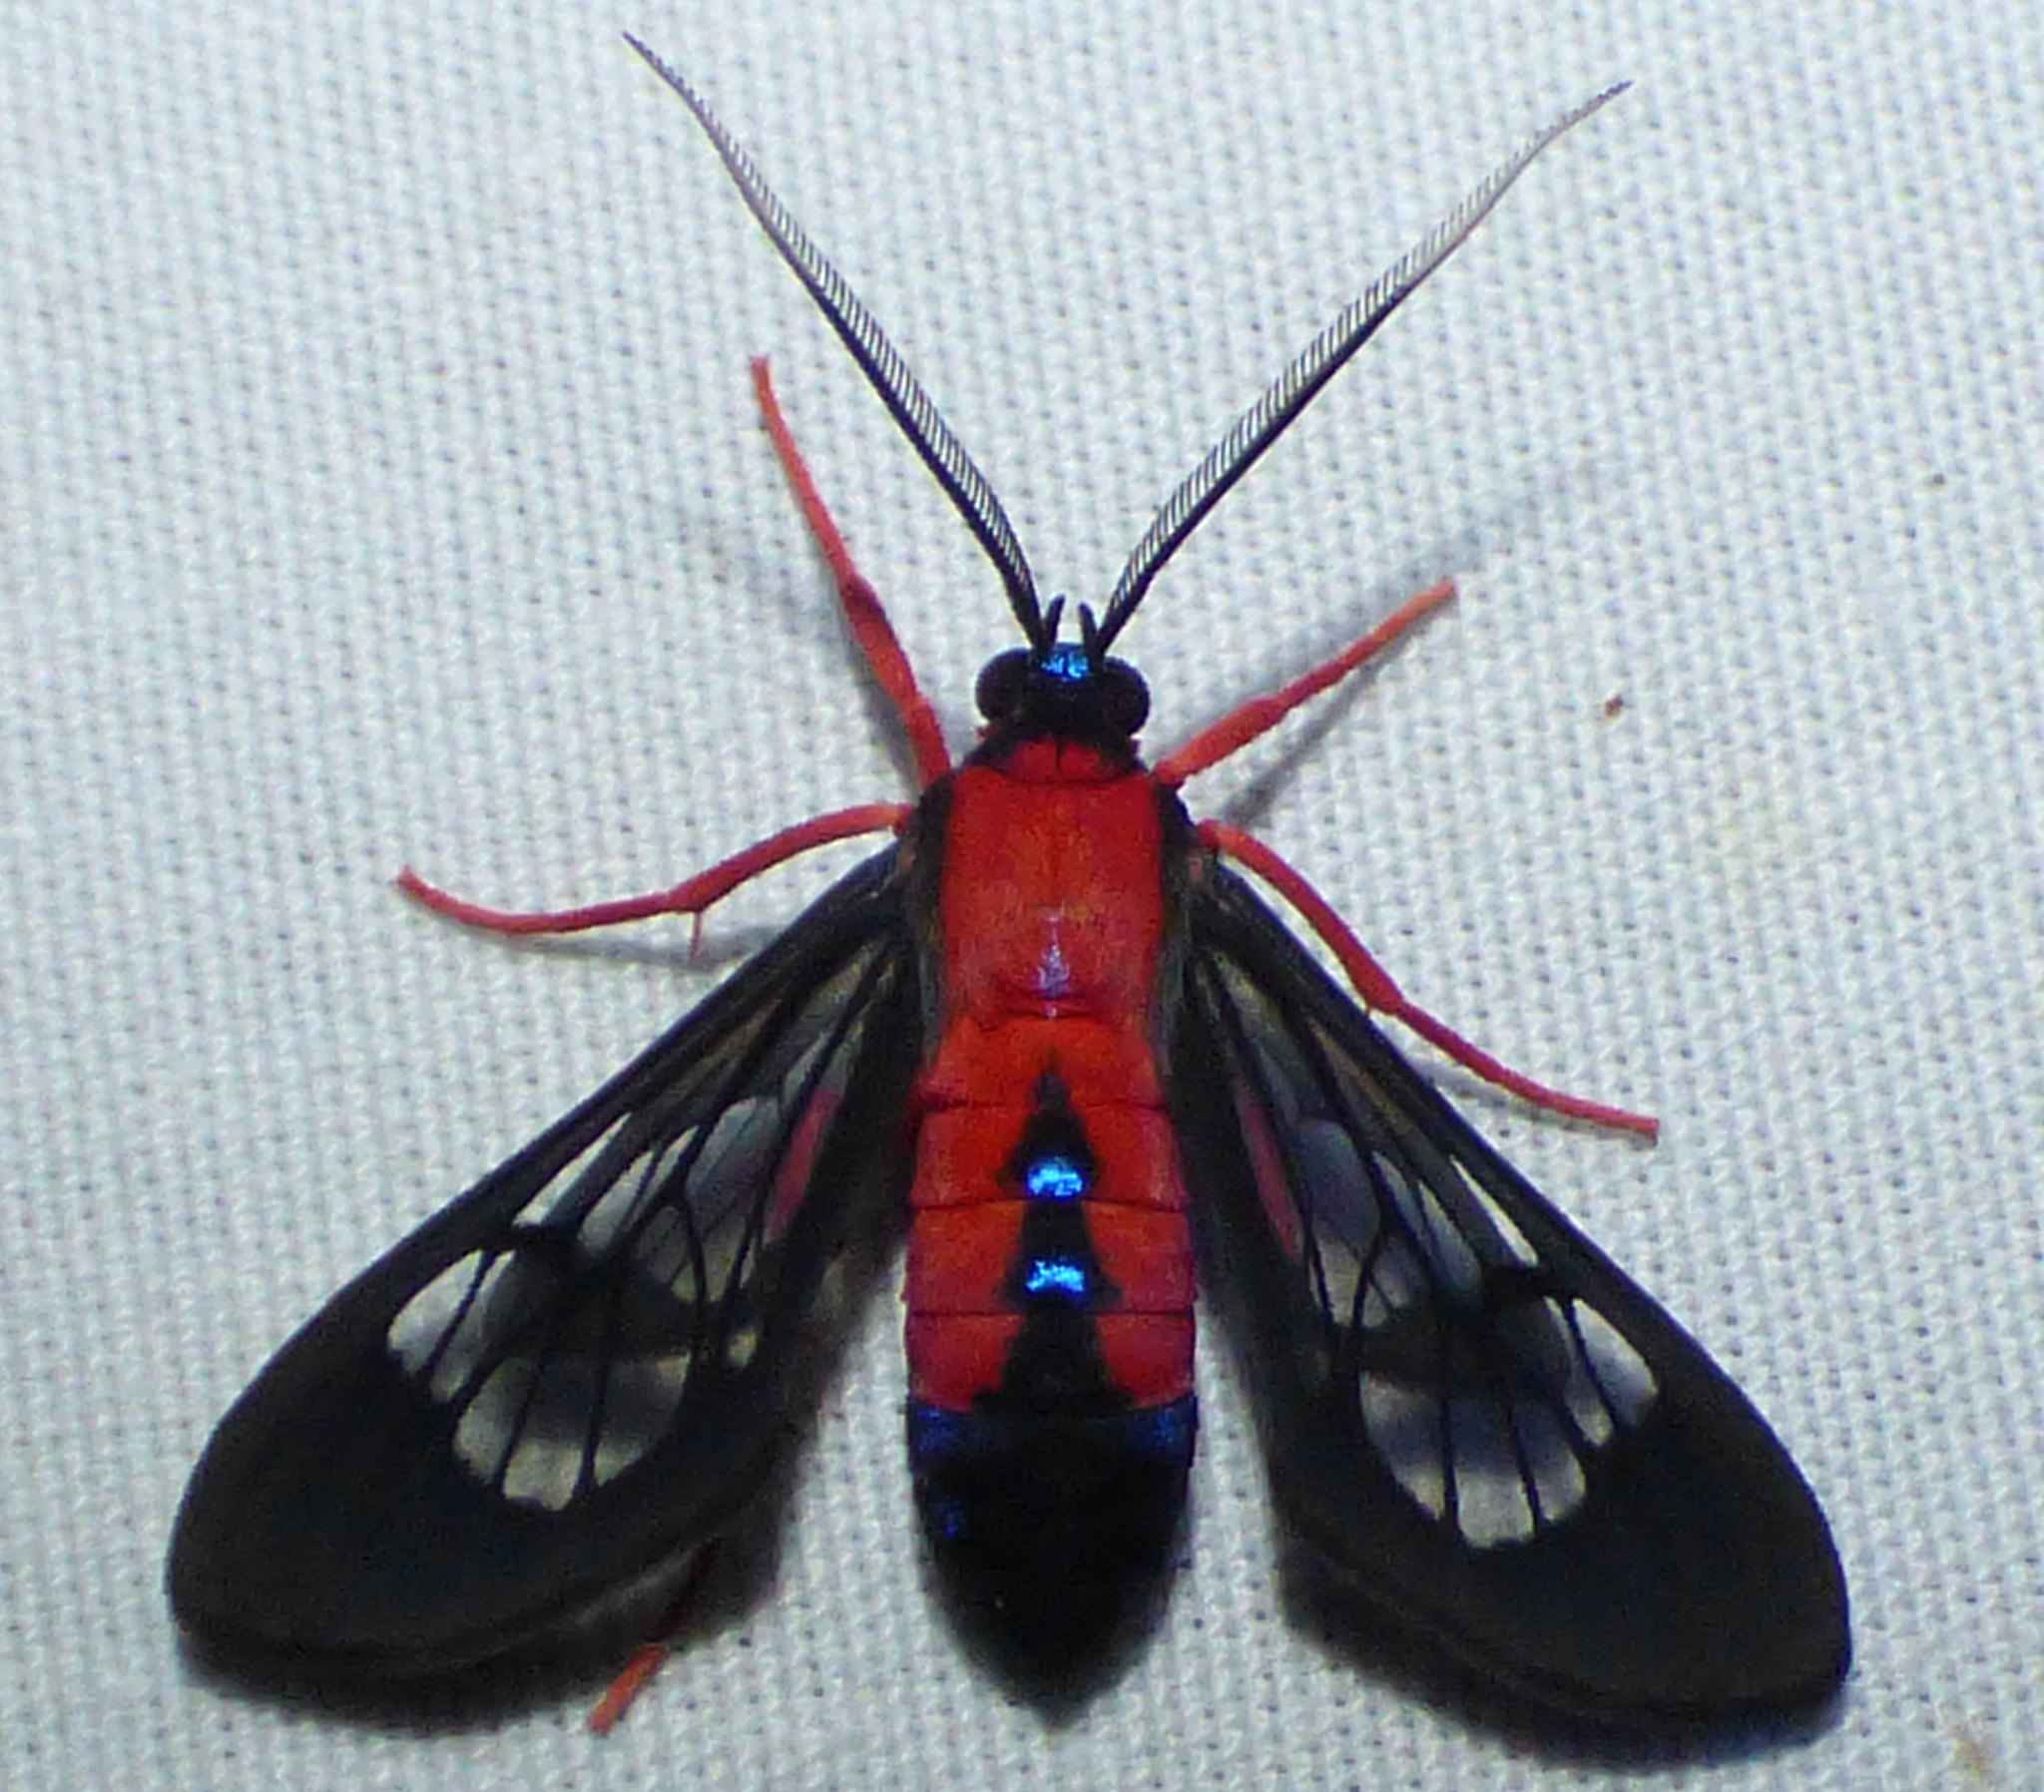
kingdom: Animalia
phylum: Arthropoda
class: Insecta
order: Lepidoptera
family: Erebidae
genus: Cosmosoma
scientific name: Cosmosoma myrodora
